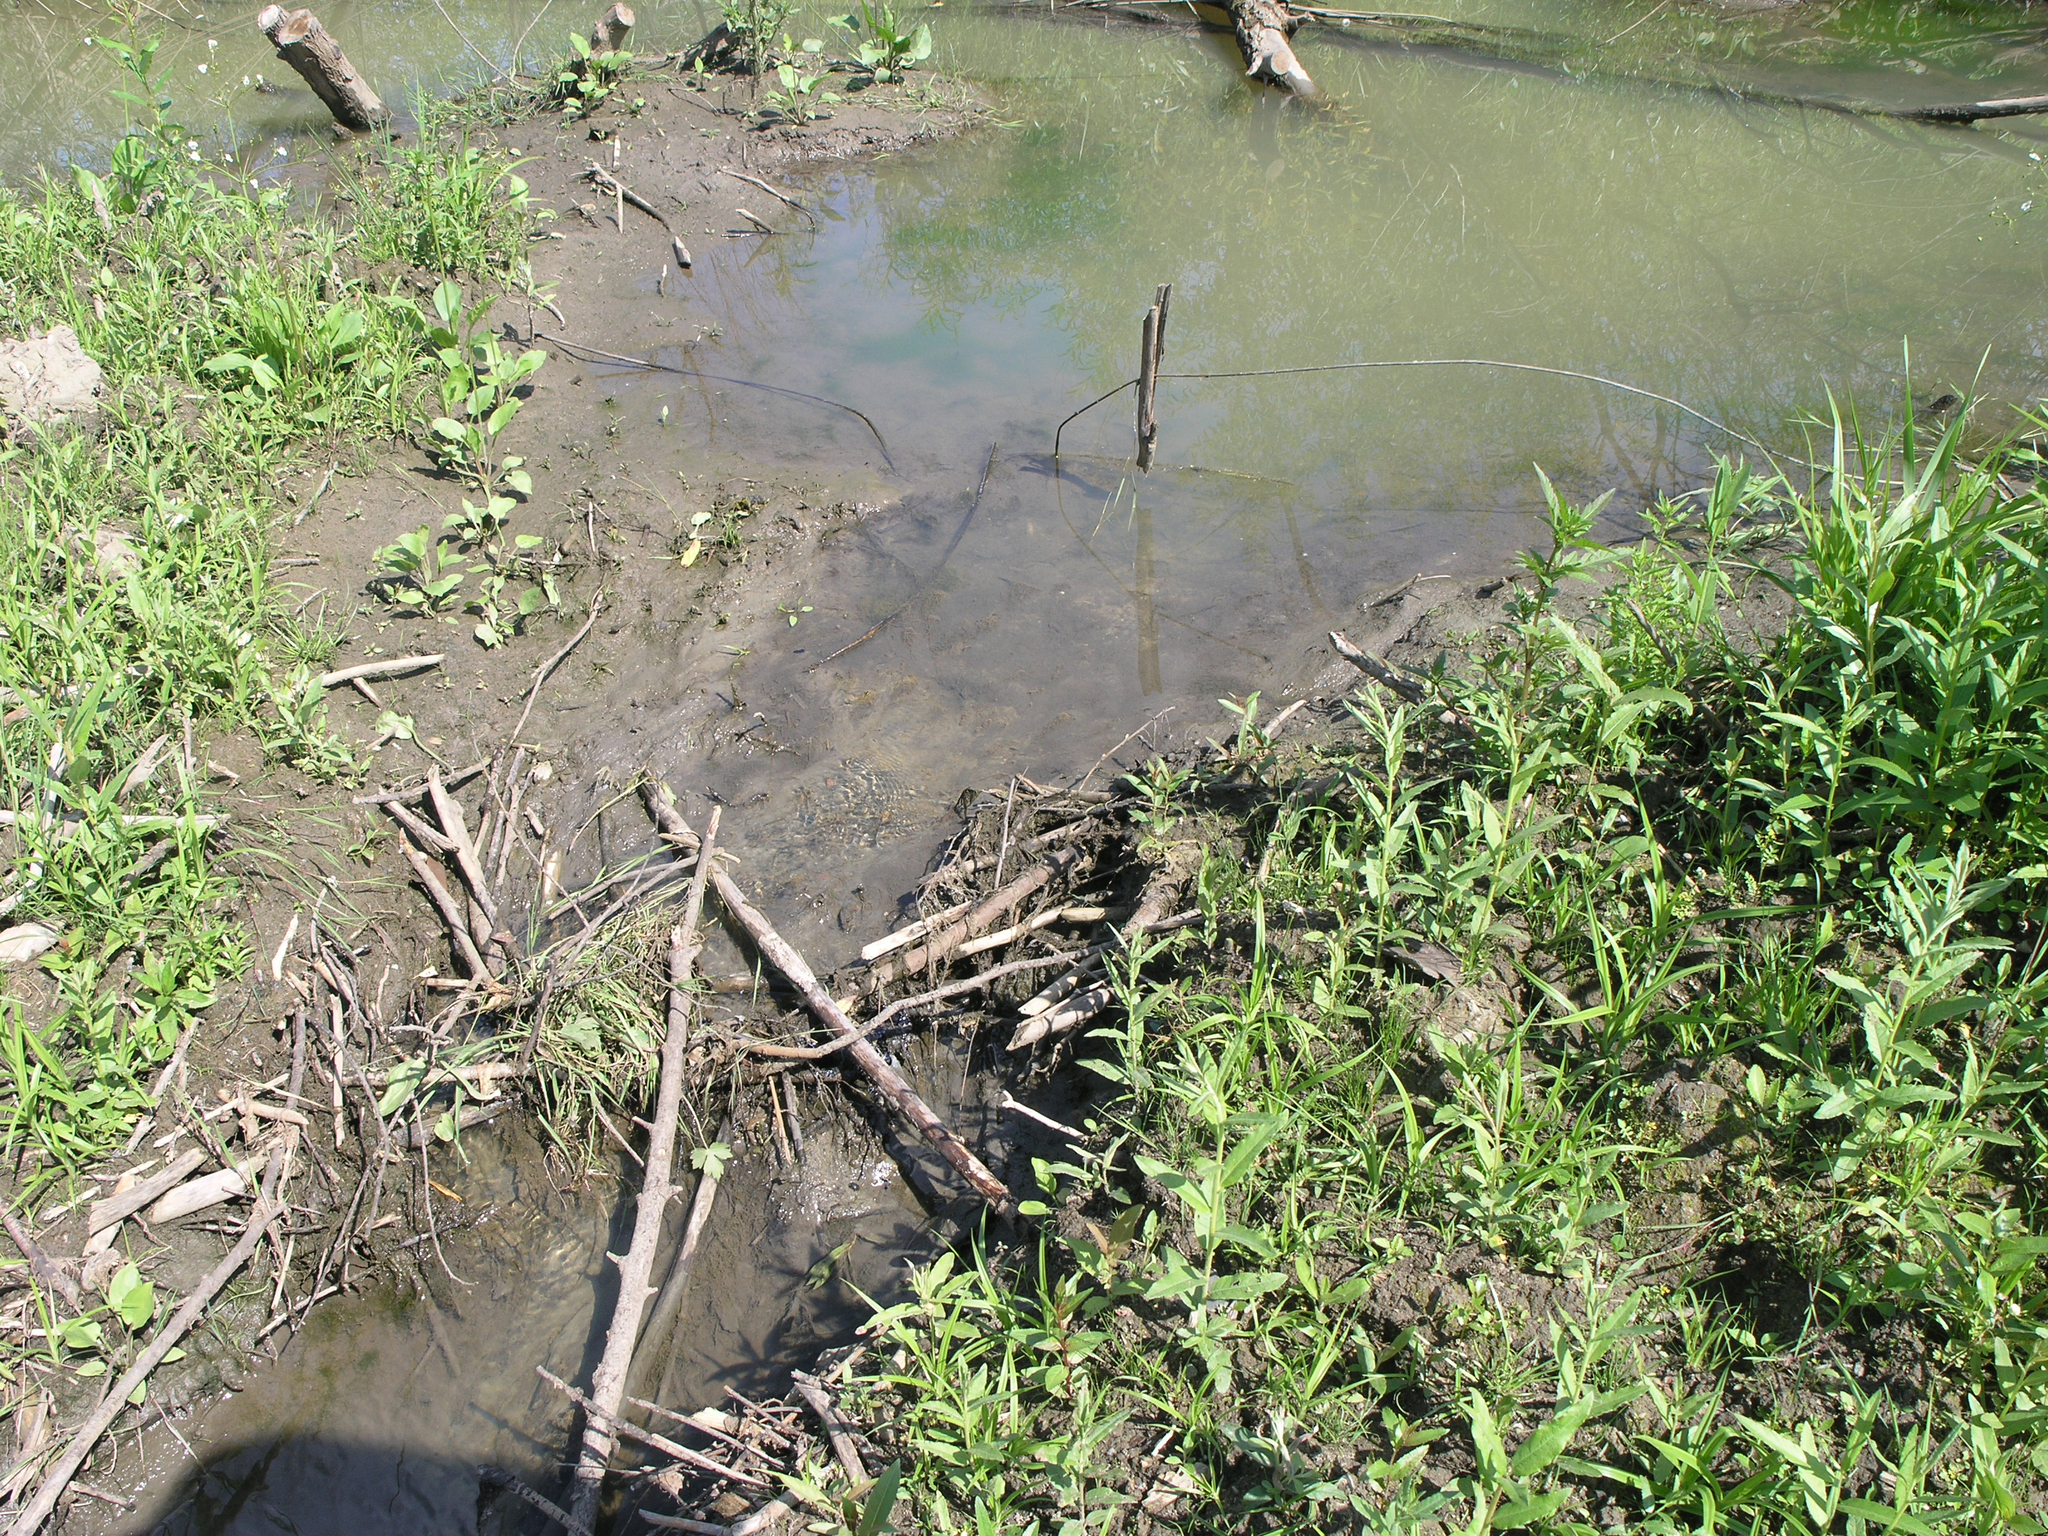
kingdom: Animalia
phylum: Chordata
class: Mammalia
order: Rodentia
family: Castoridae
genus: Castor
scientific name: Castor fiber
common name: Eurasian beaver
